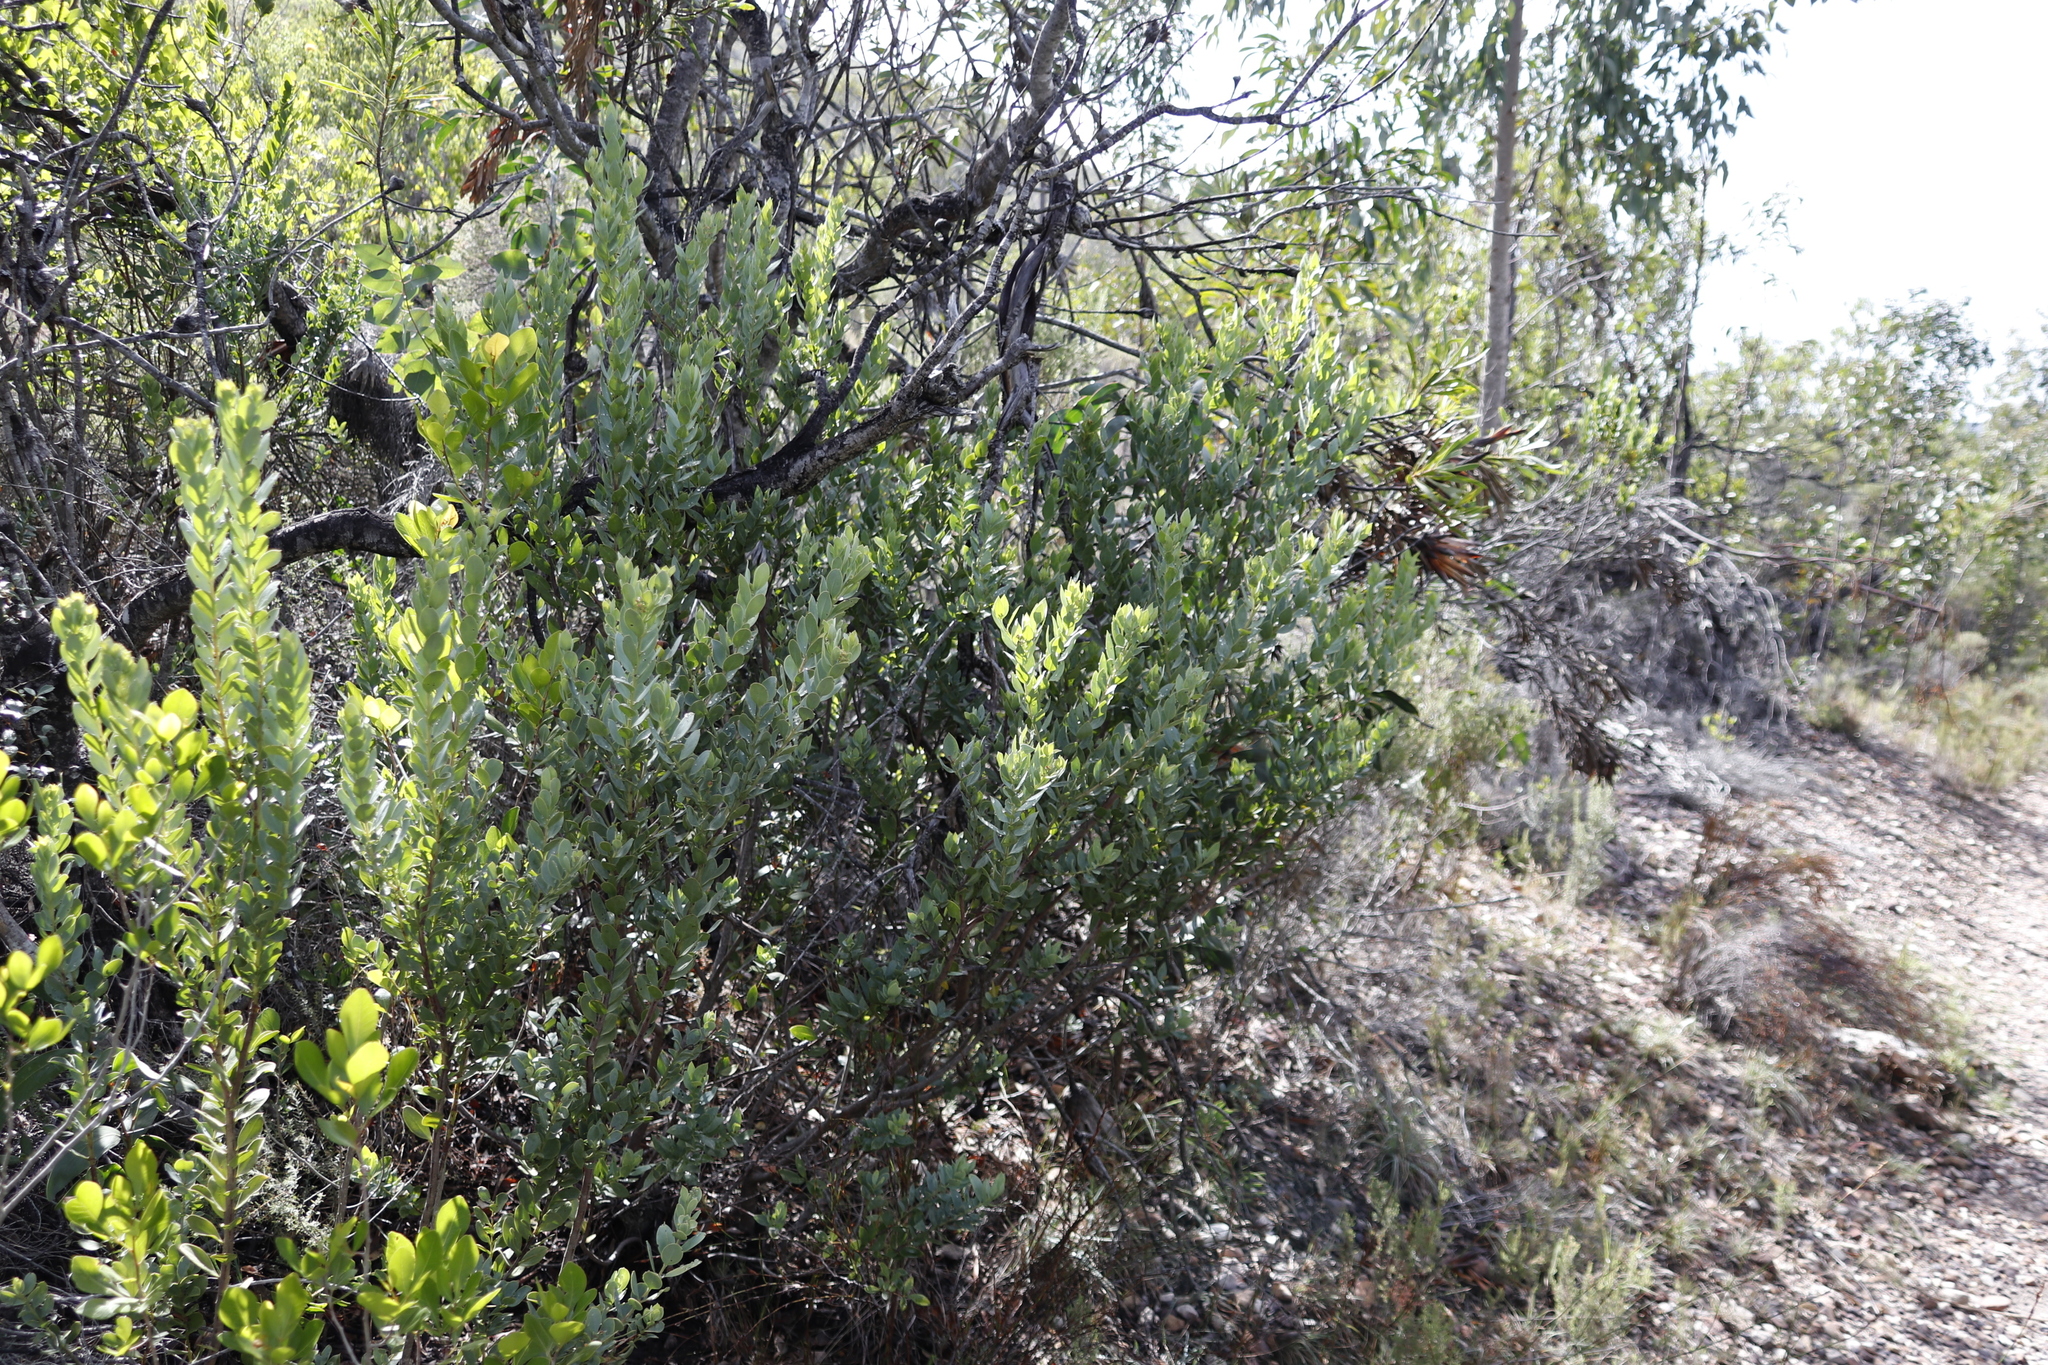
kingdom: Plantae
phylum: Tracheophyta
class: Magnoliopsida
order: Santalales
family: Santalaceae
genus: Osyris
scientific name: Osyris compressa
